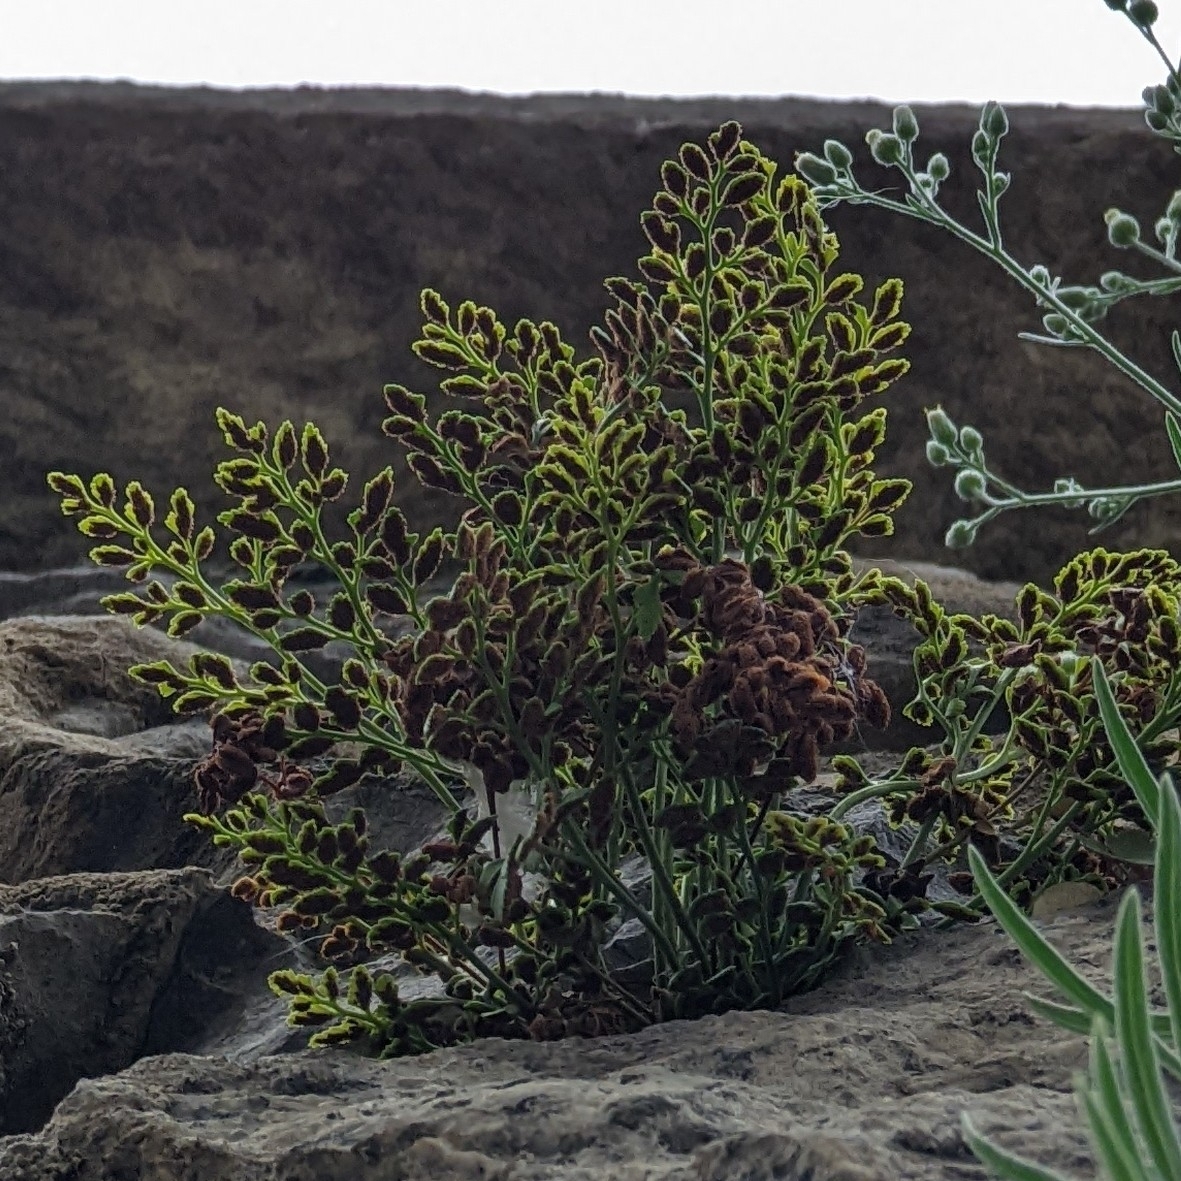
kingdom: Plantae
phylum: Tracheophyta
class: Polypodiopsida
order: Polypodiales
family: Aspleniaceae
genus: Asplenium
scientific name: Asplenium ruta-muraria
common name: Wall-rue
